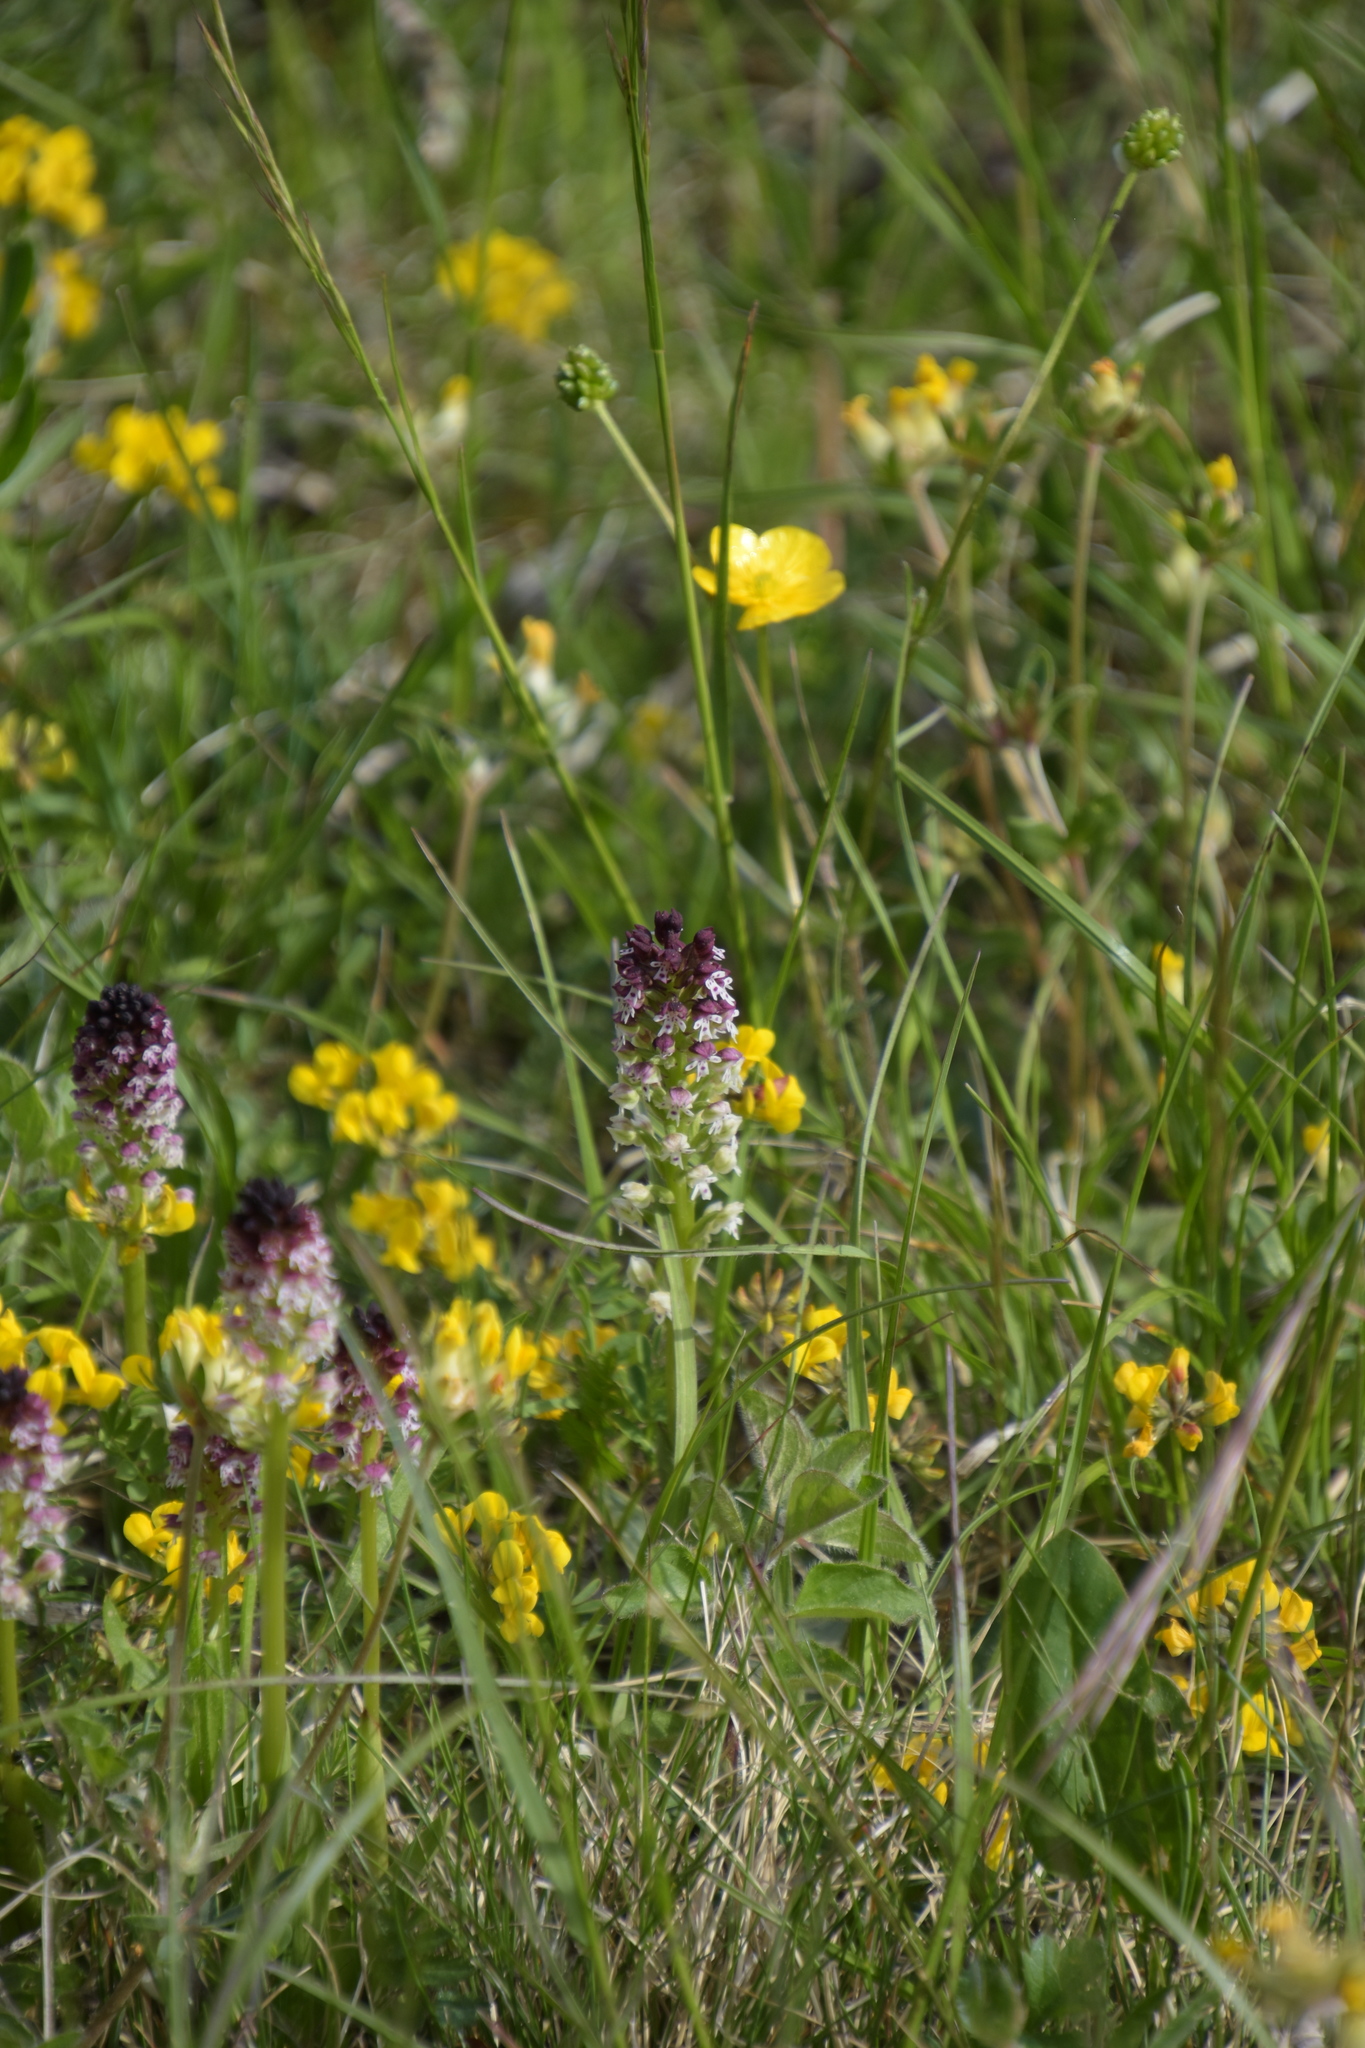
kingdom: Plantae
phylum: Tracheophyta
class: Liliopsida
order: Asparagales
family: Orchidaceae
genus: Neotinea
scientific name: Neotinea ustulata
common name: Burnt orchid
